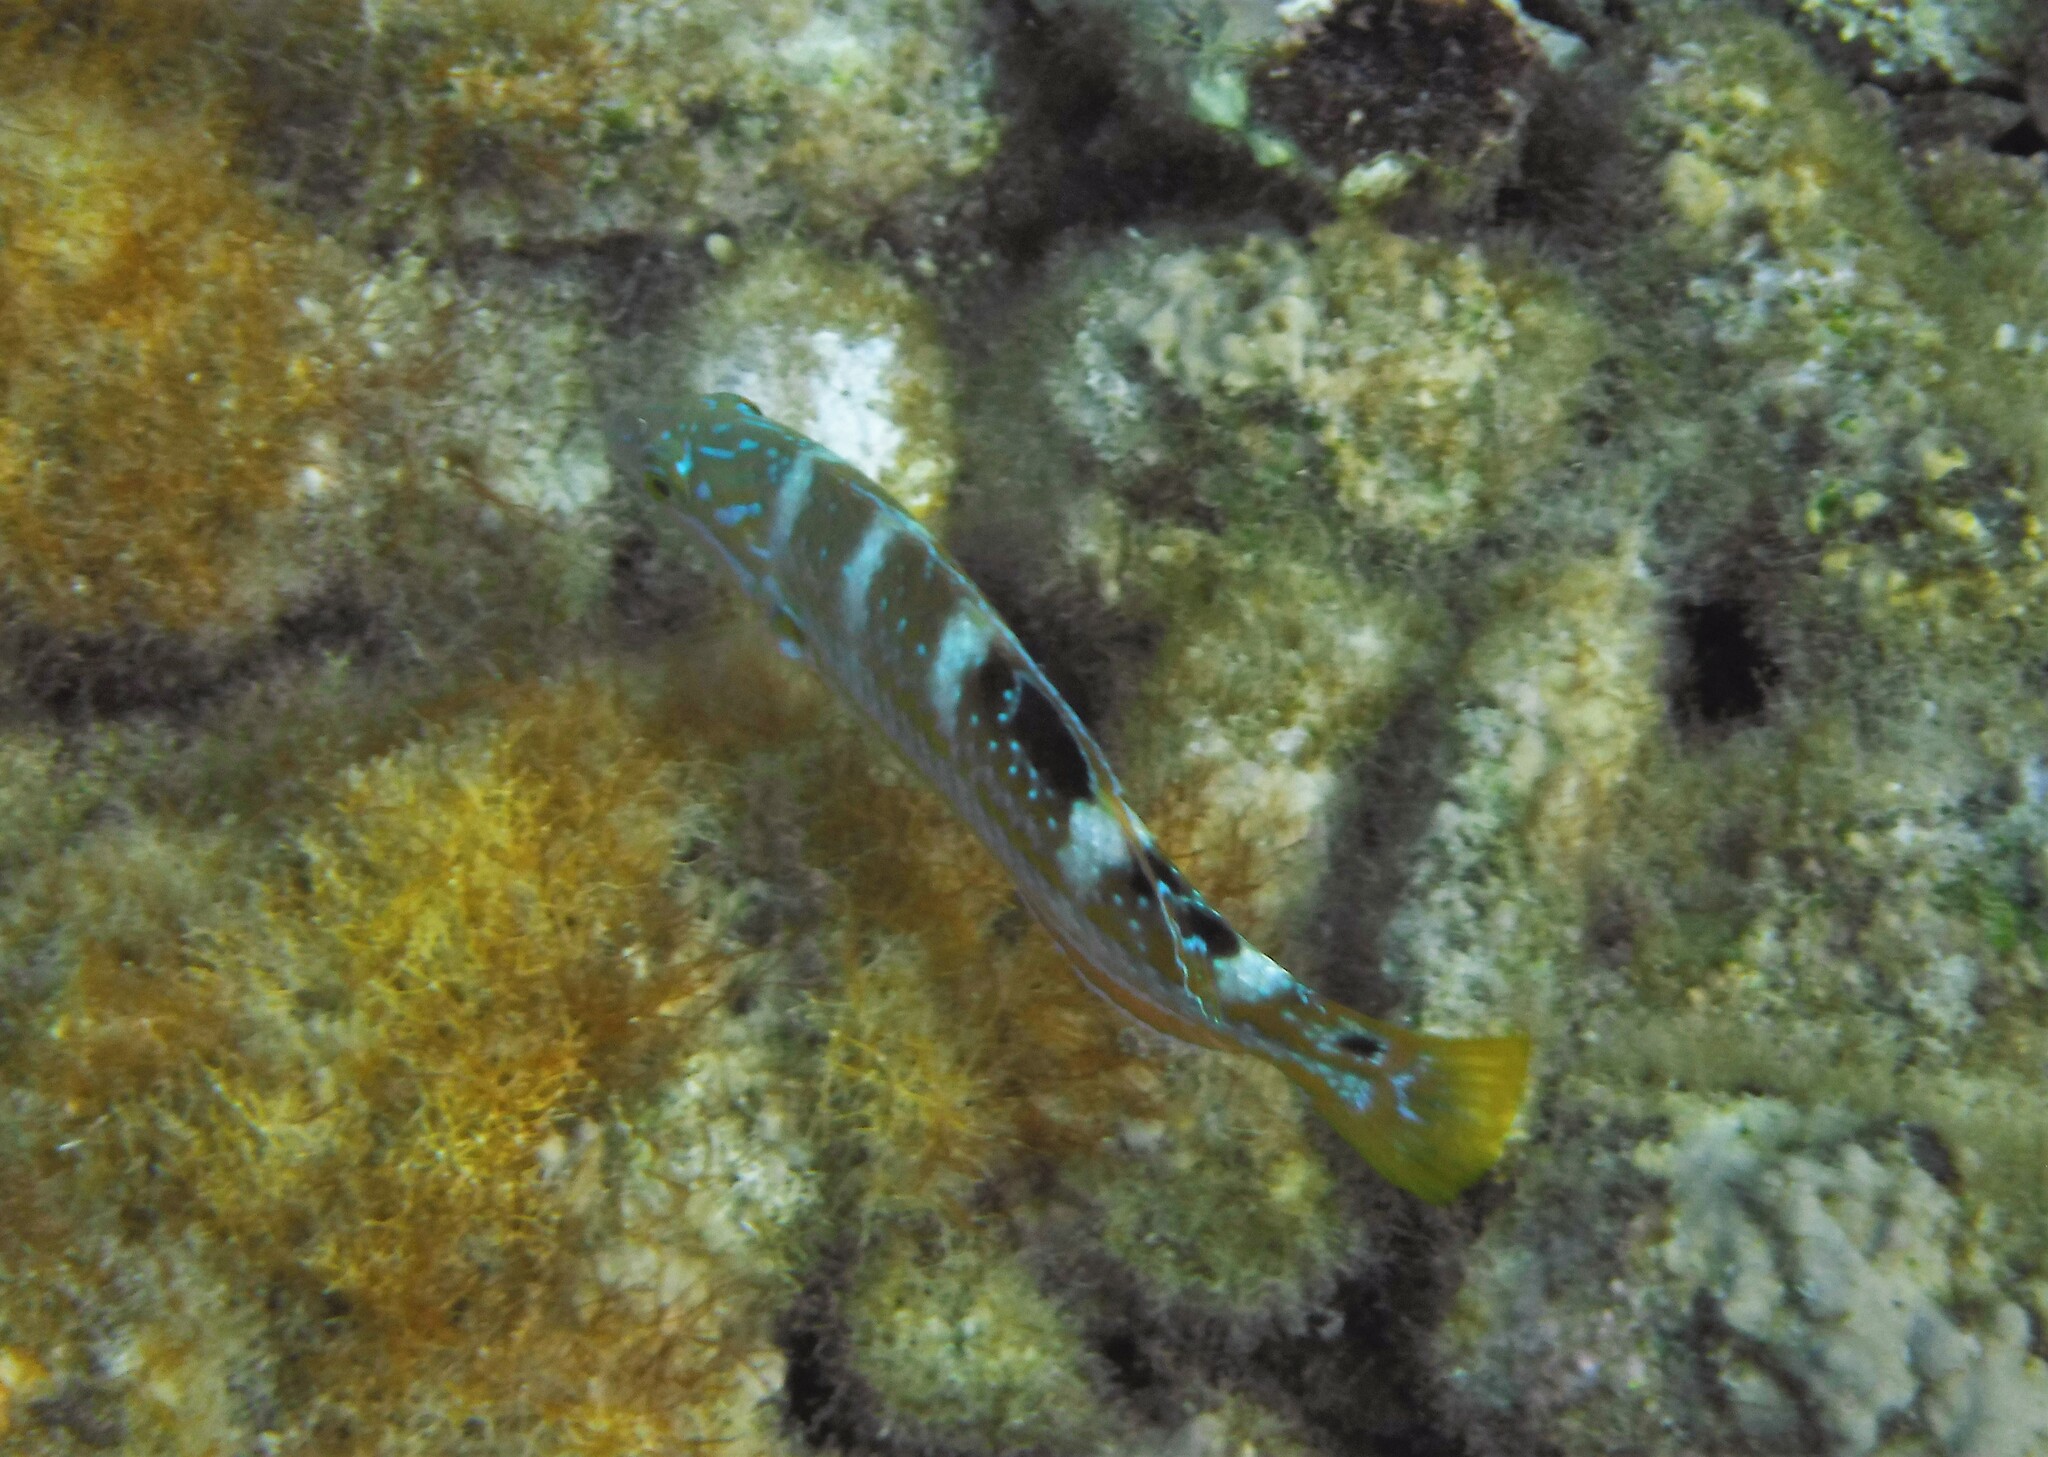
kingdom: Animalia
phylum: Chordata
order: Perciformes
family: Labridae
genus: Halichoeres
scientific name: Halichoeres radiatus
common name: Puddingwife
